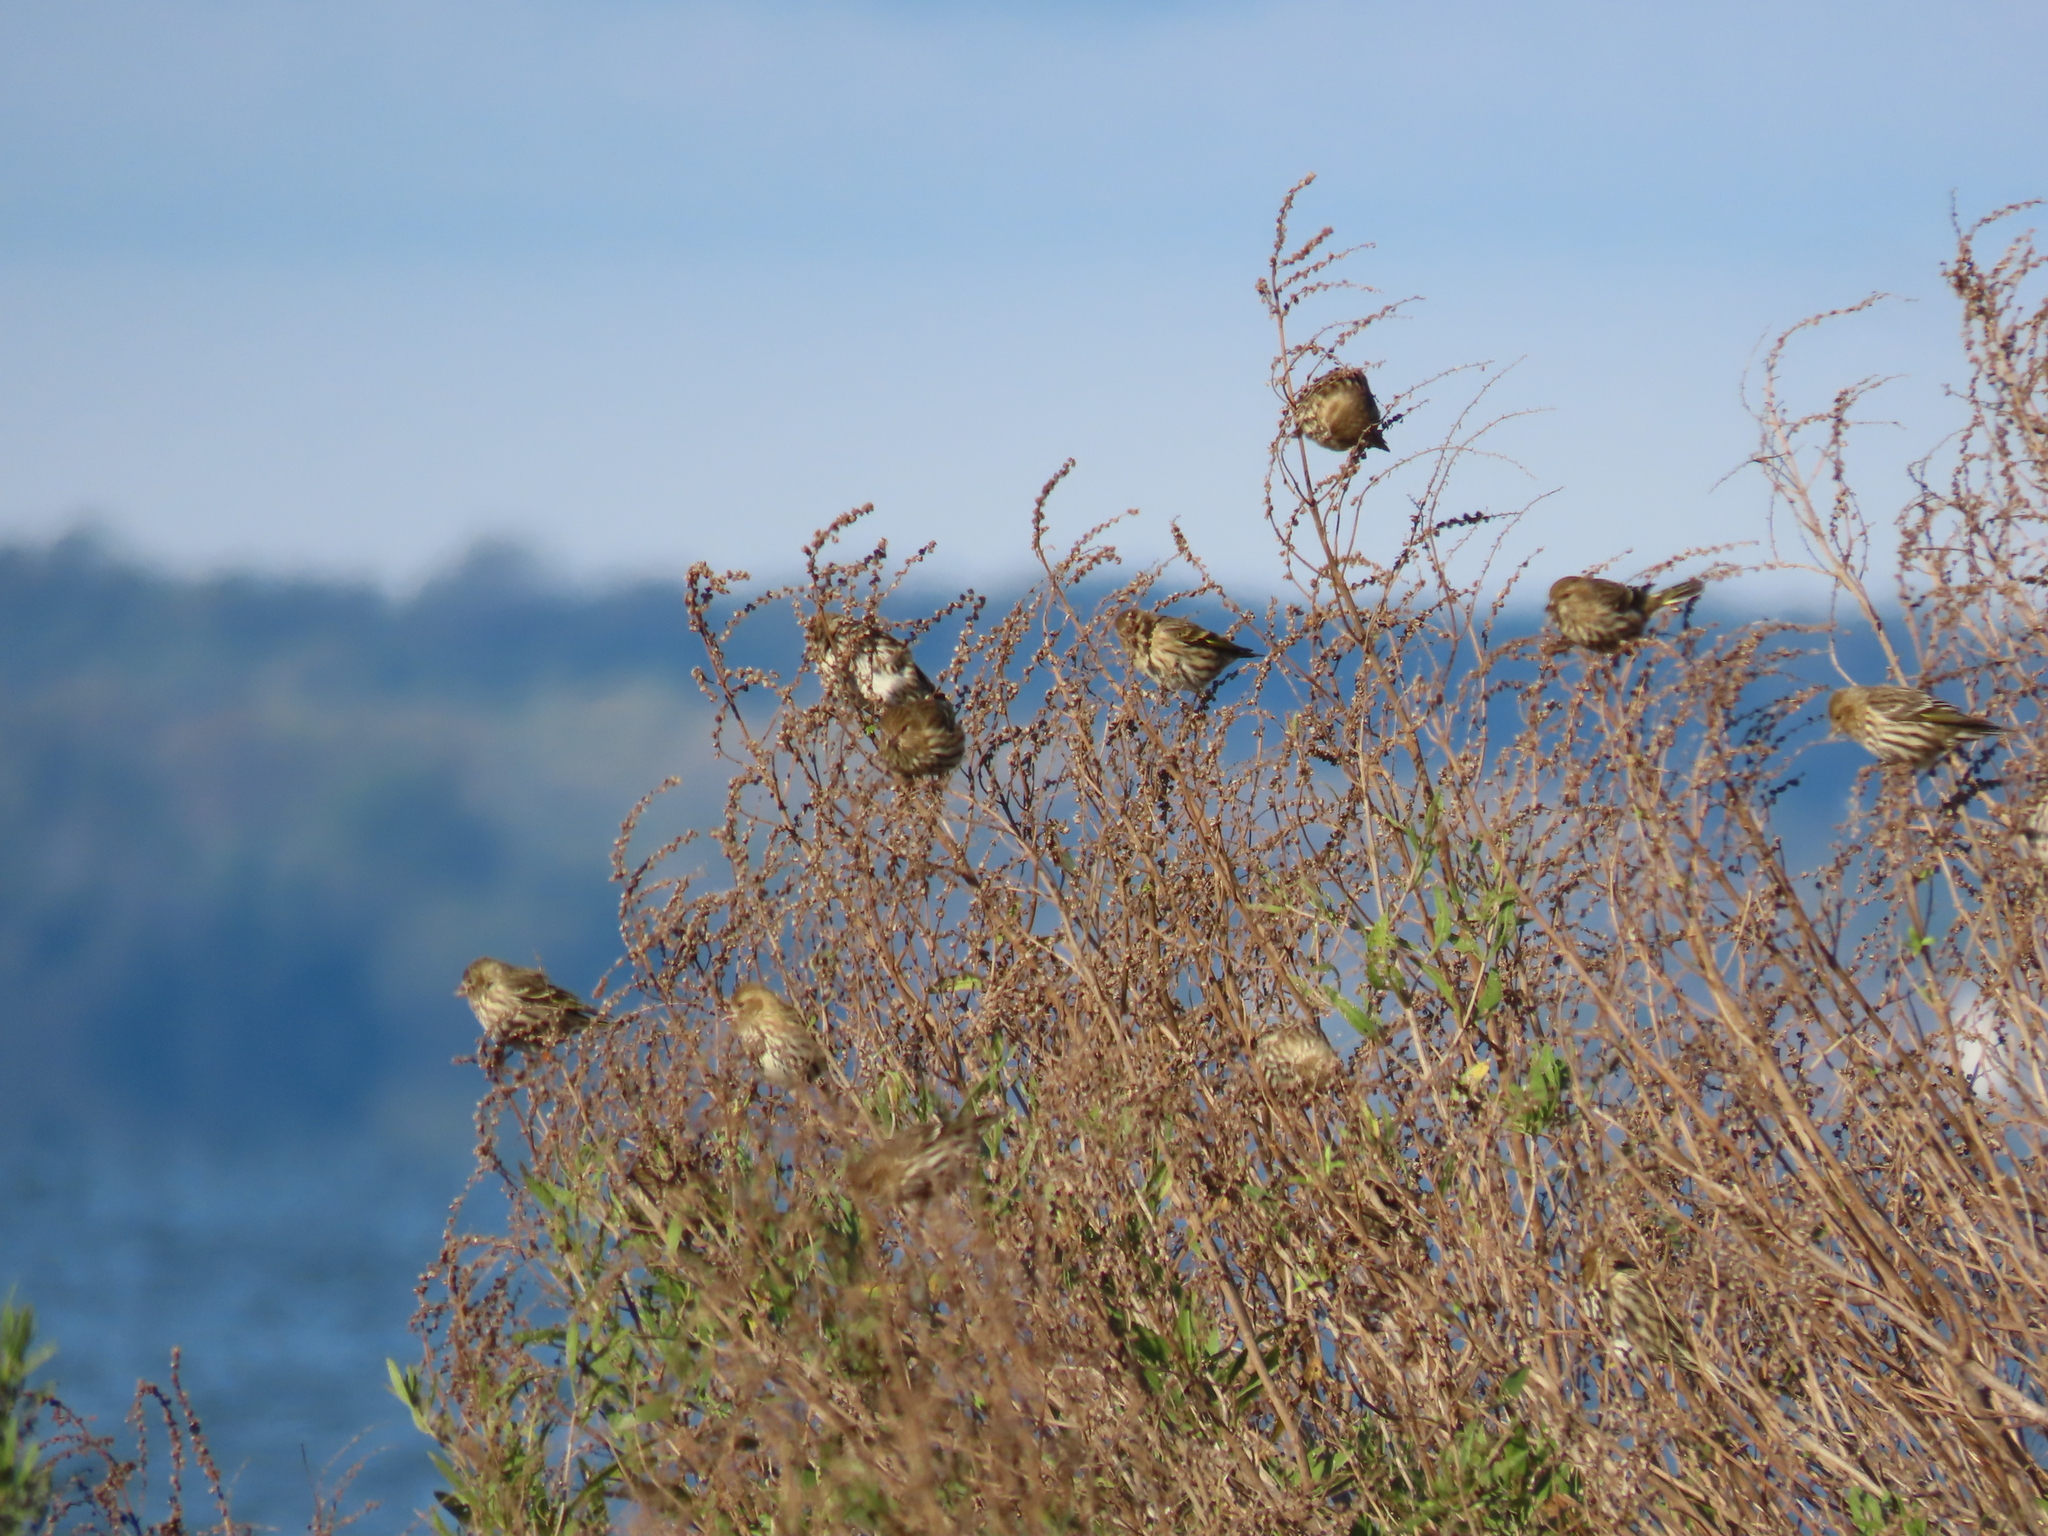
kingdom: Animalia
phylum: Chordata
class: Aves
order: Passeriformes
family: Fringillidae
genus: Spinus
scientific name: Spinus pinus
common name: Pine siskin
